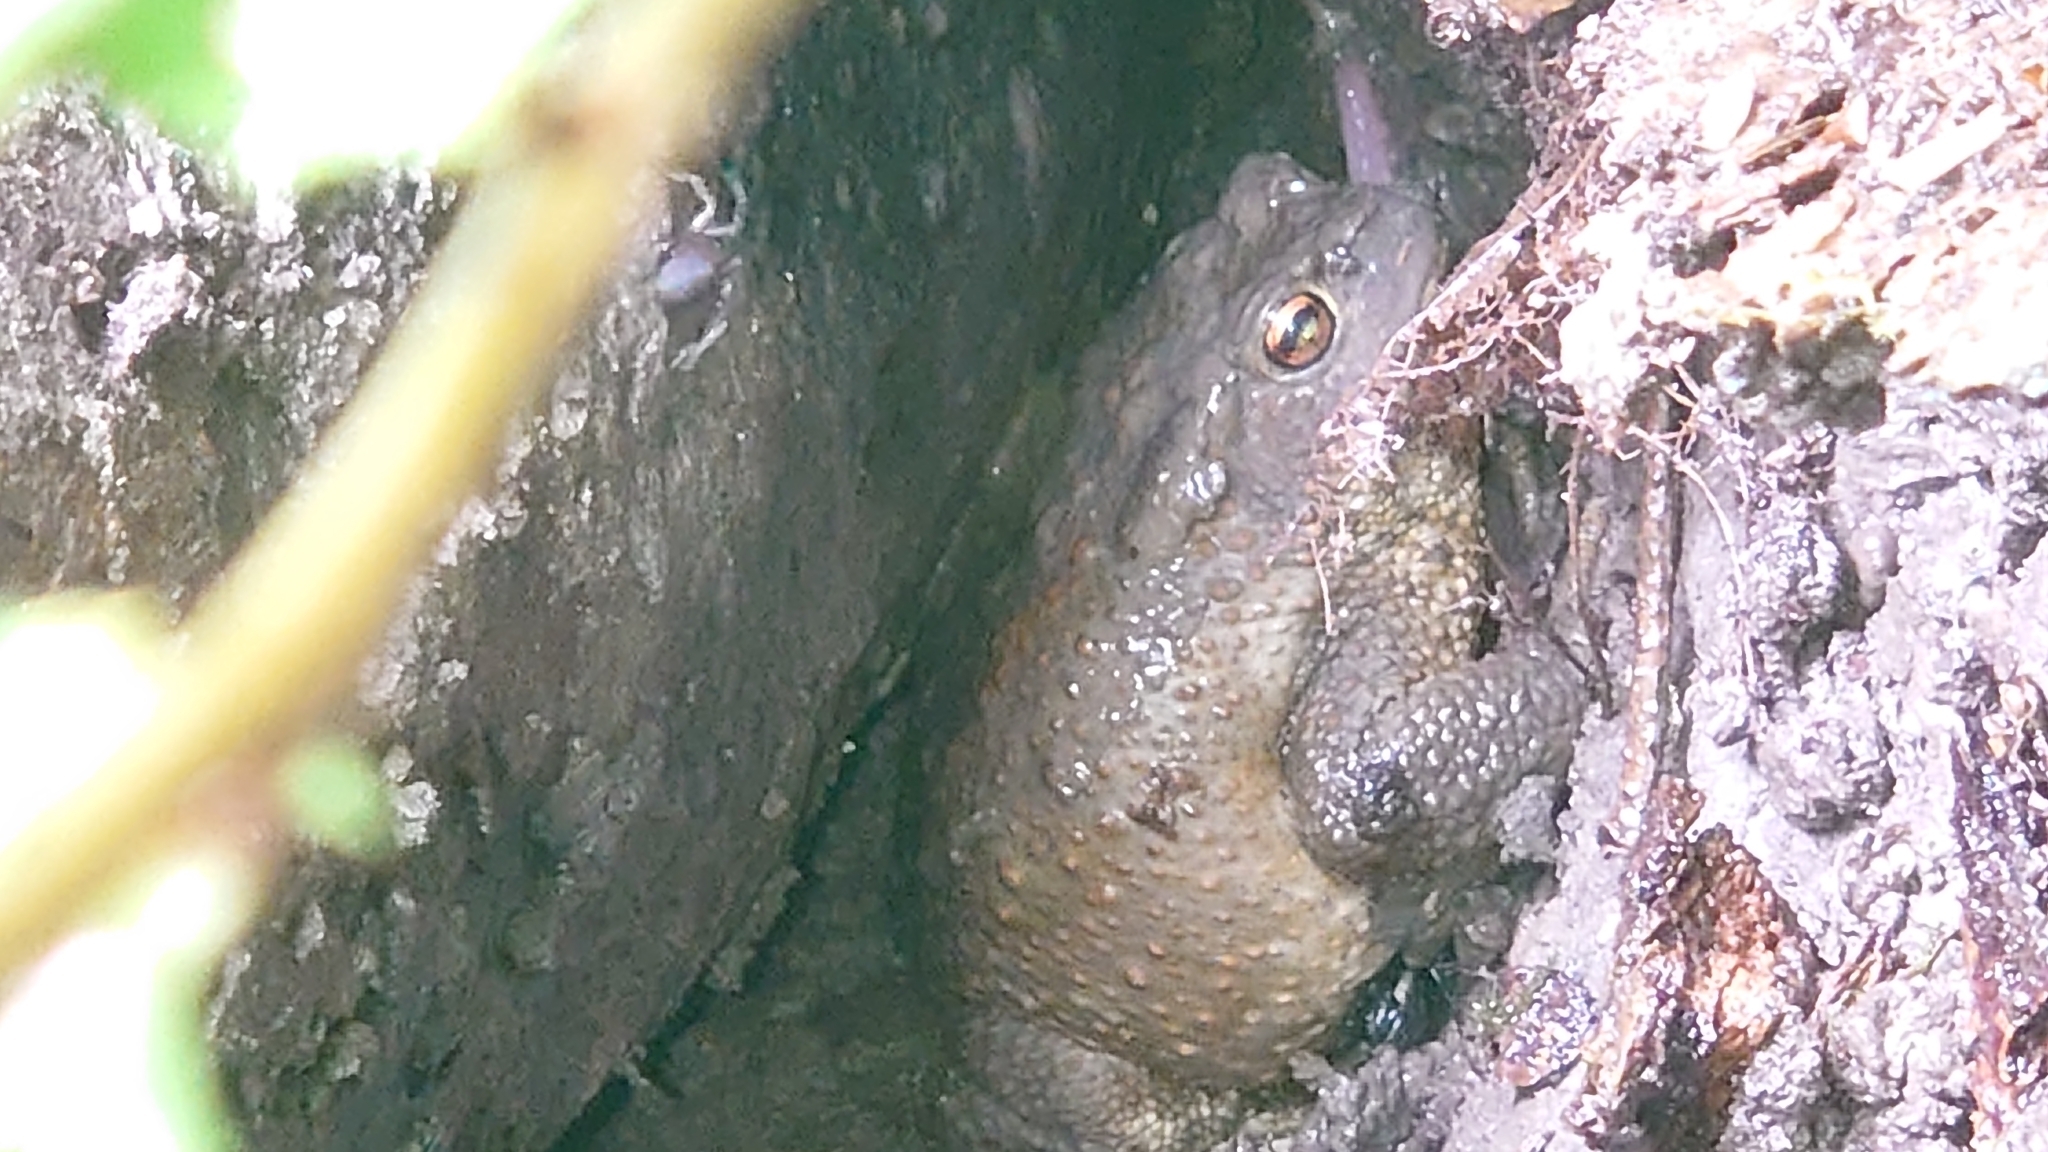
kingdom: Animalia
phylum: Chordata
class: Amphibia
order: Anura
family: Bufonidae
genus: Bufo
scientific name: Bufo bufo
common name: Common toad
